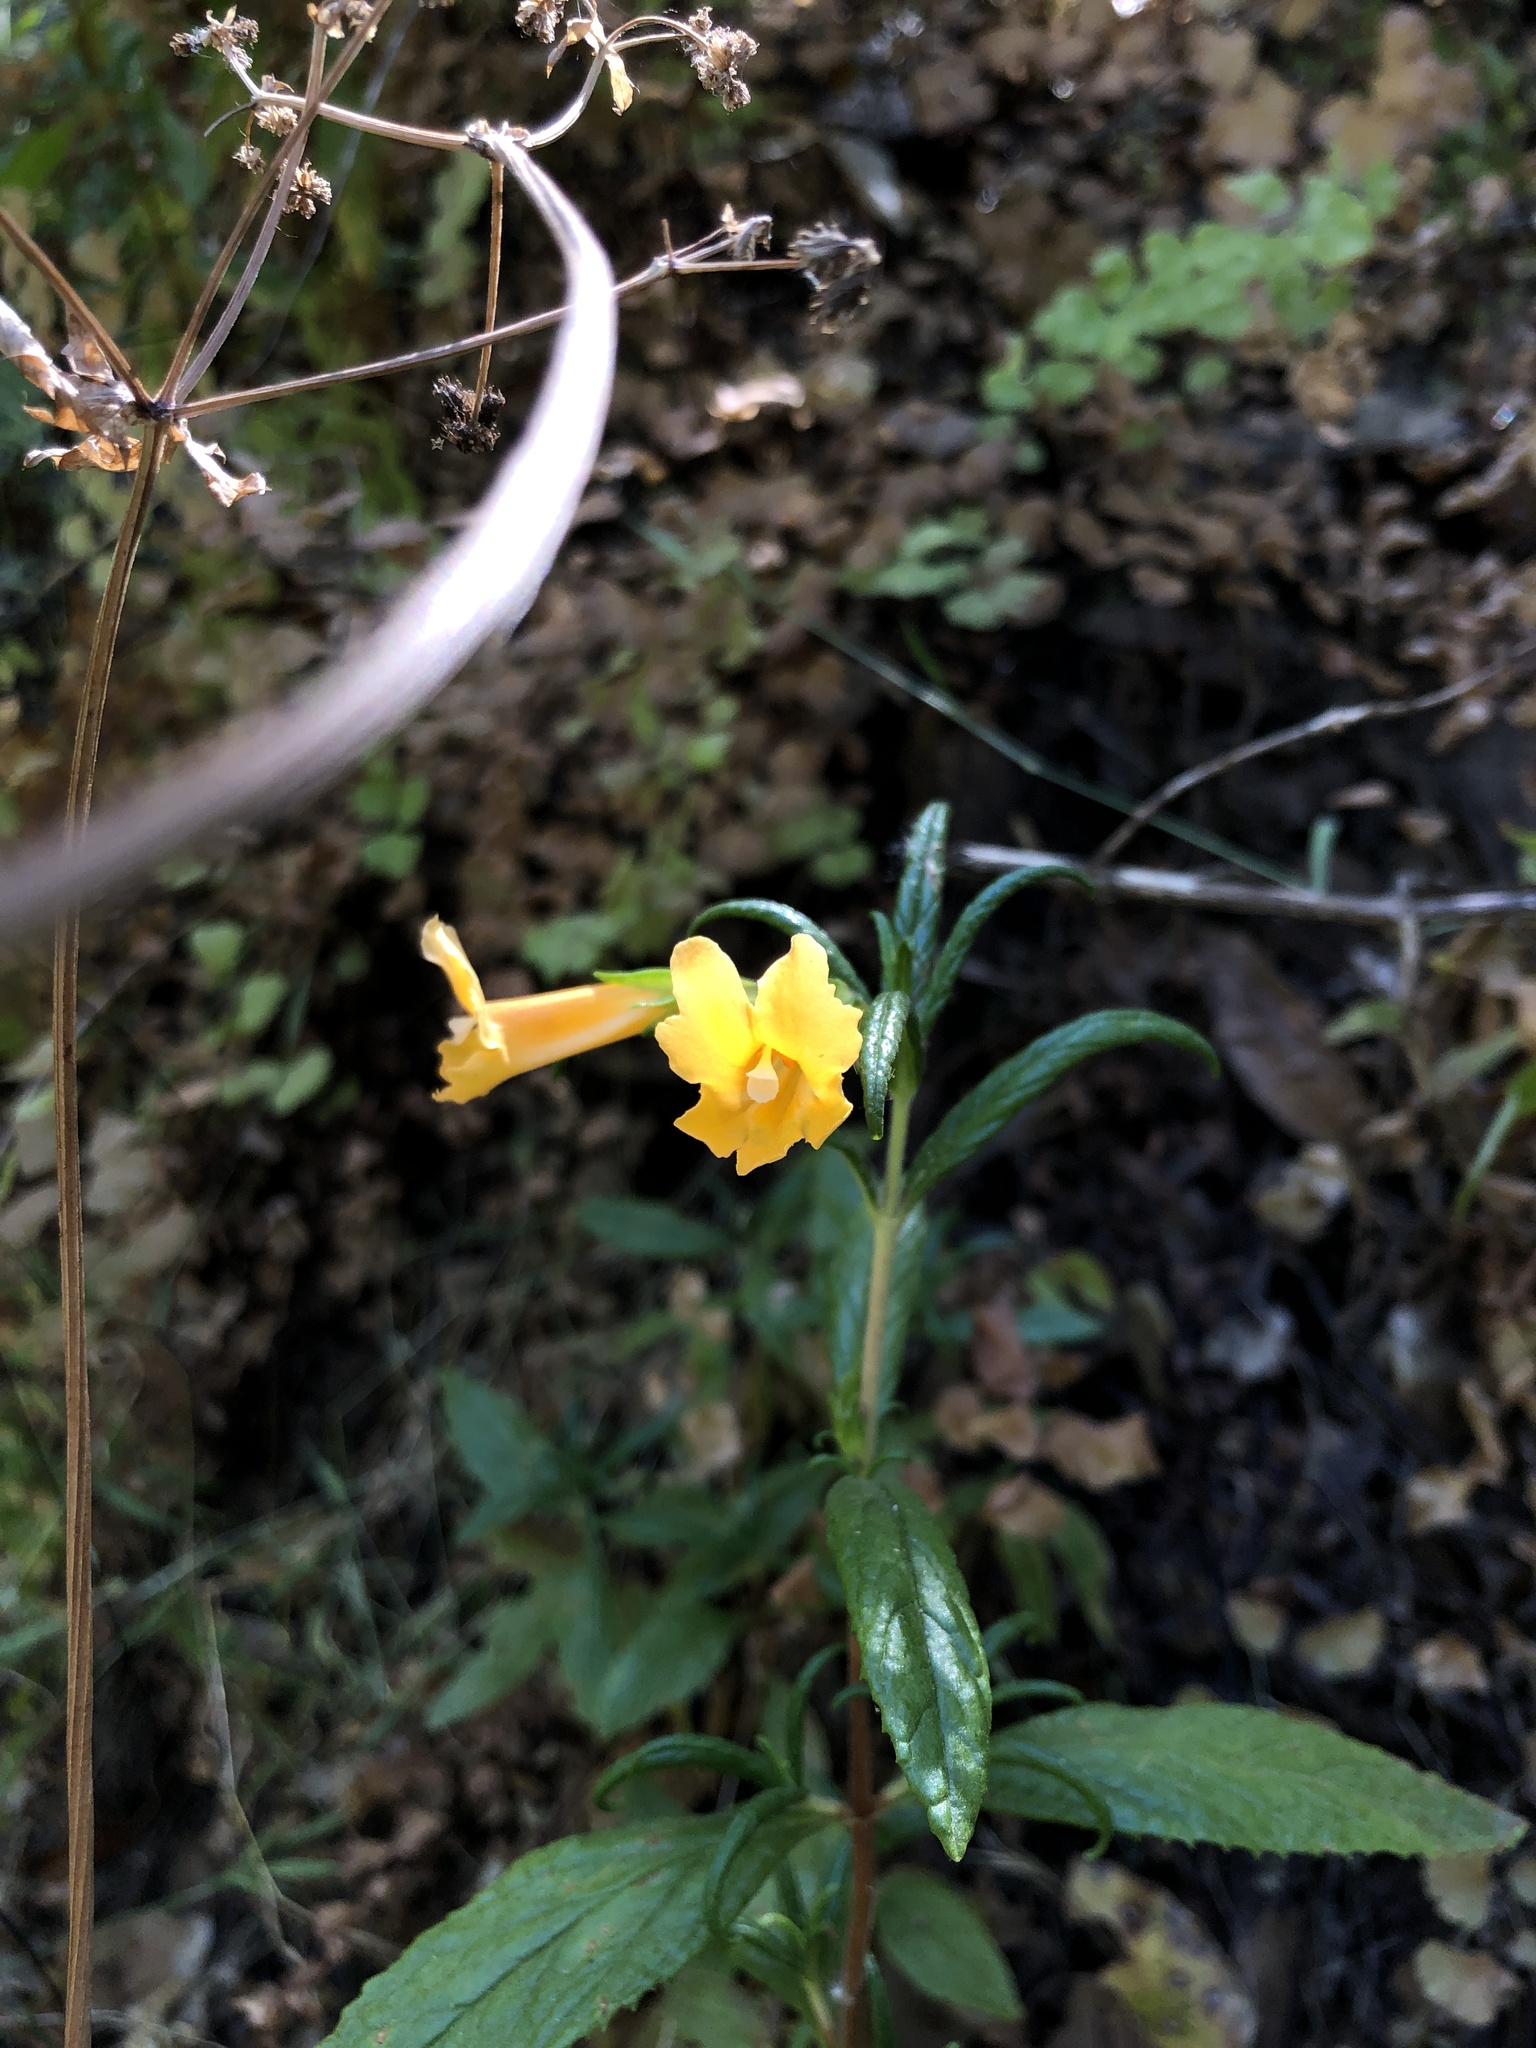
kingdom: Plantae
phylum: Tracheophyta
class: Magnoliopsida
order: Lamiales
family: Phrymaceae
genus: Diplacus
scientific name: Diplacus aurantiacus
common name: Bush monkey-flower
